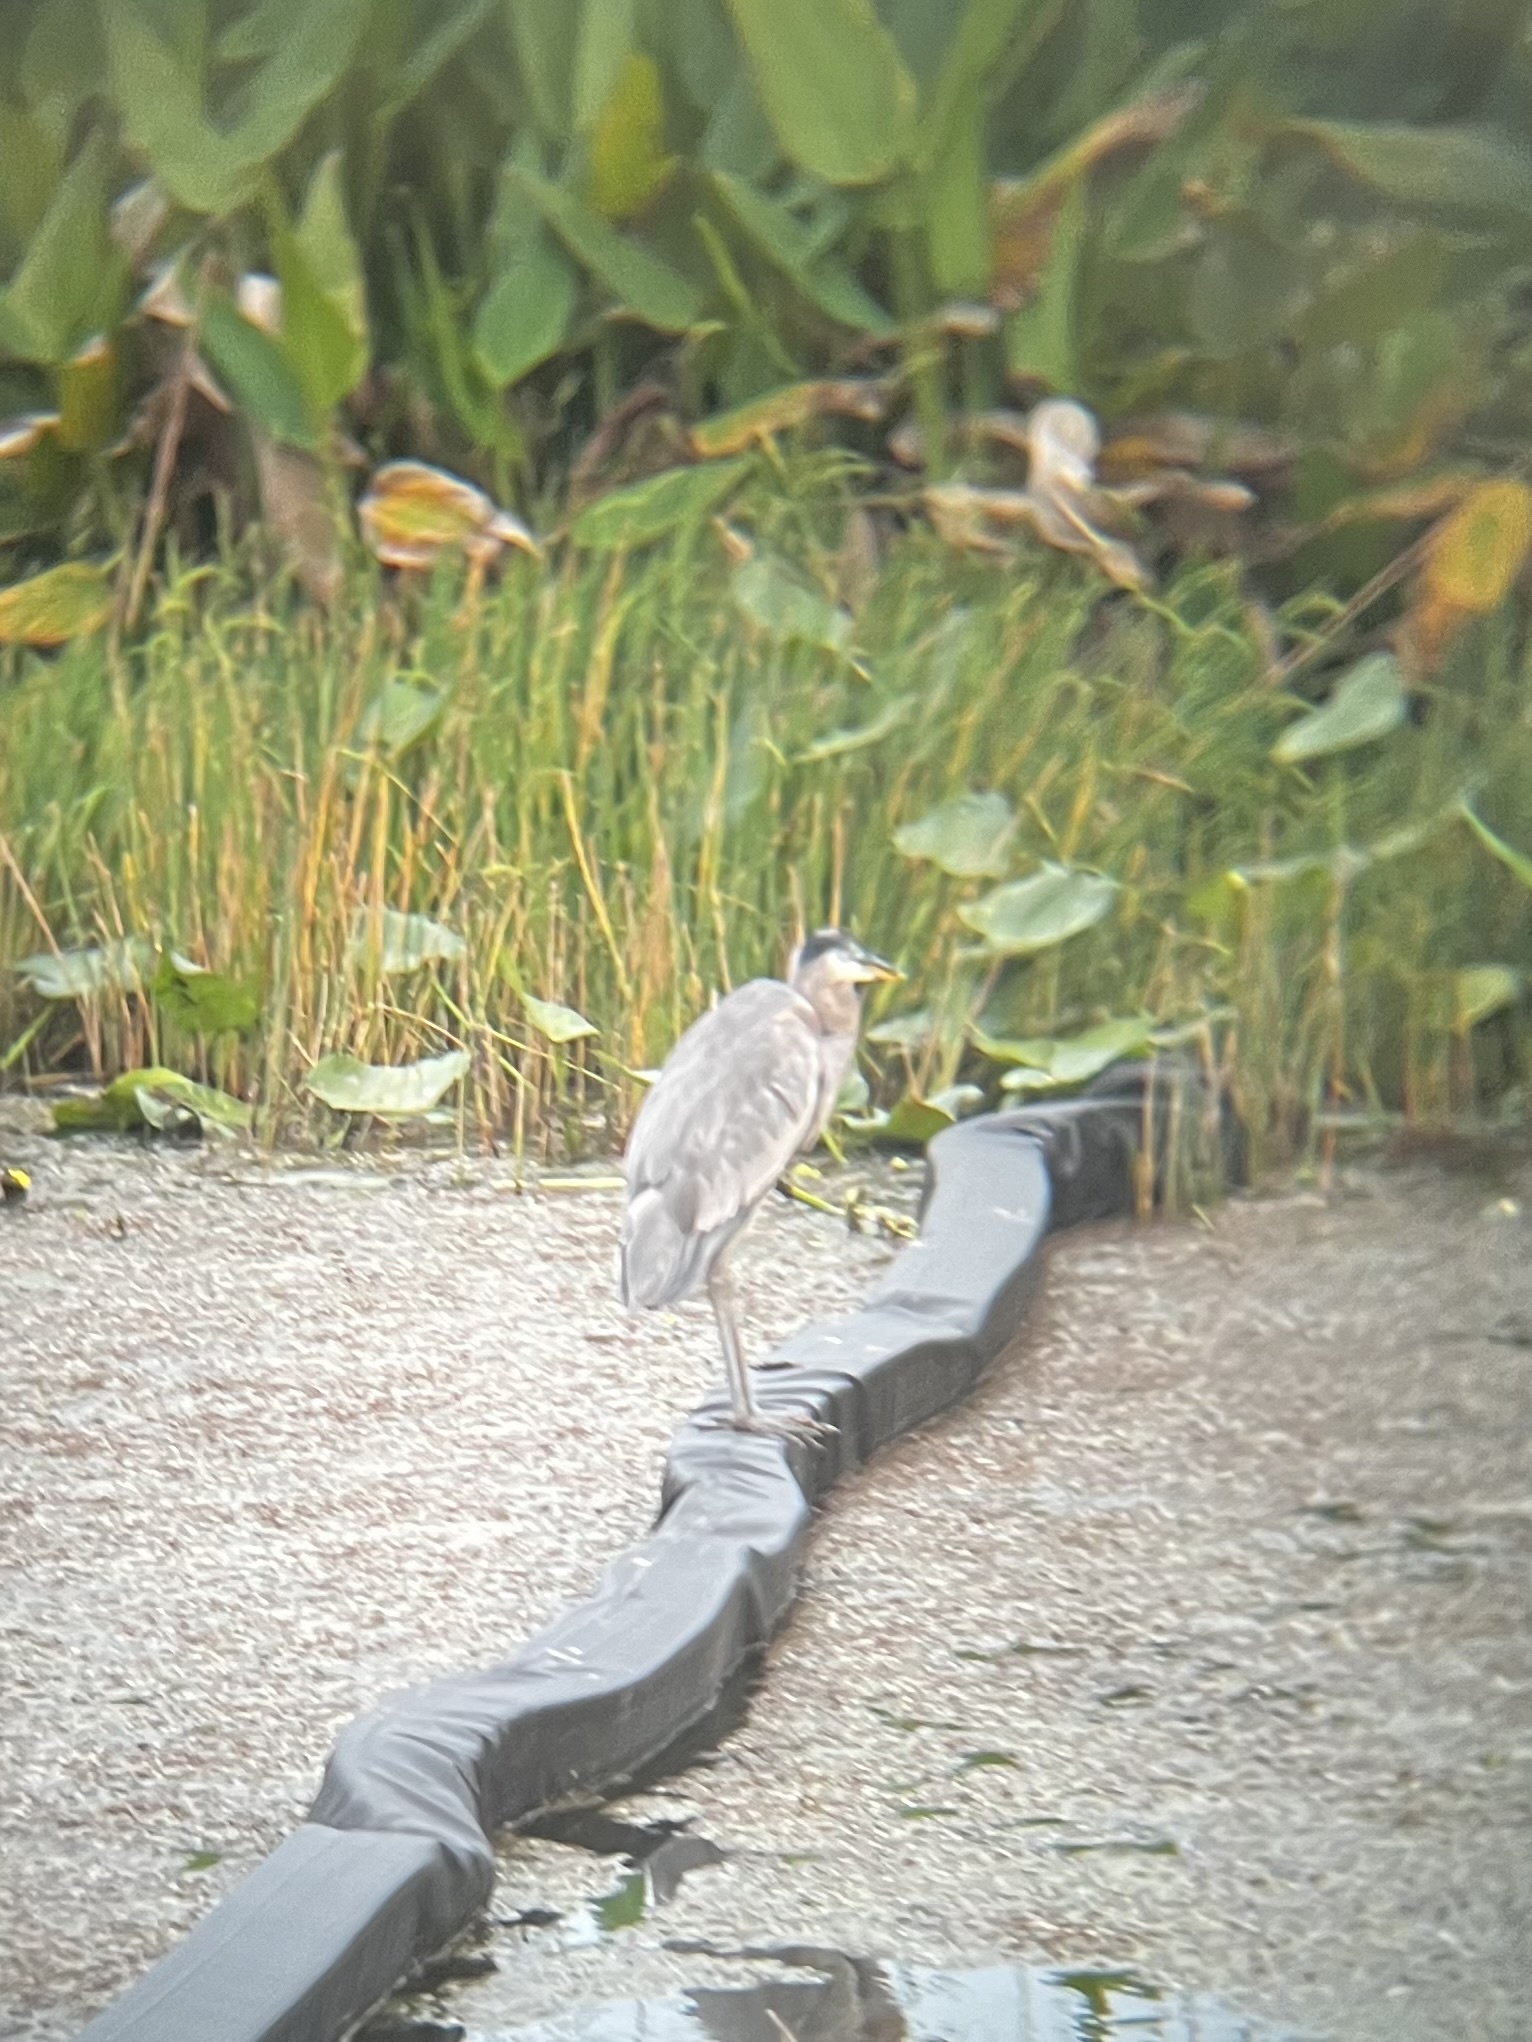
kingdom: Animalia
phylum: Chordata
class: Aves
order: Pelecaniformes
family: Ardeidae
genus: Ardea
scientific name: Ardea herodias
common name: Great blue heron
